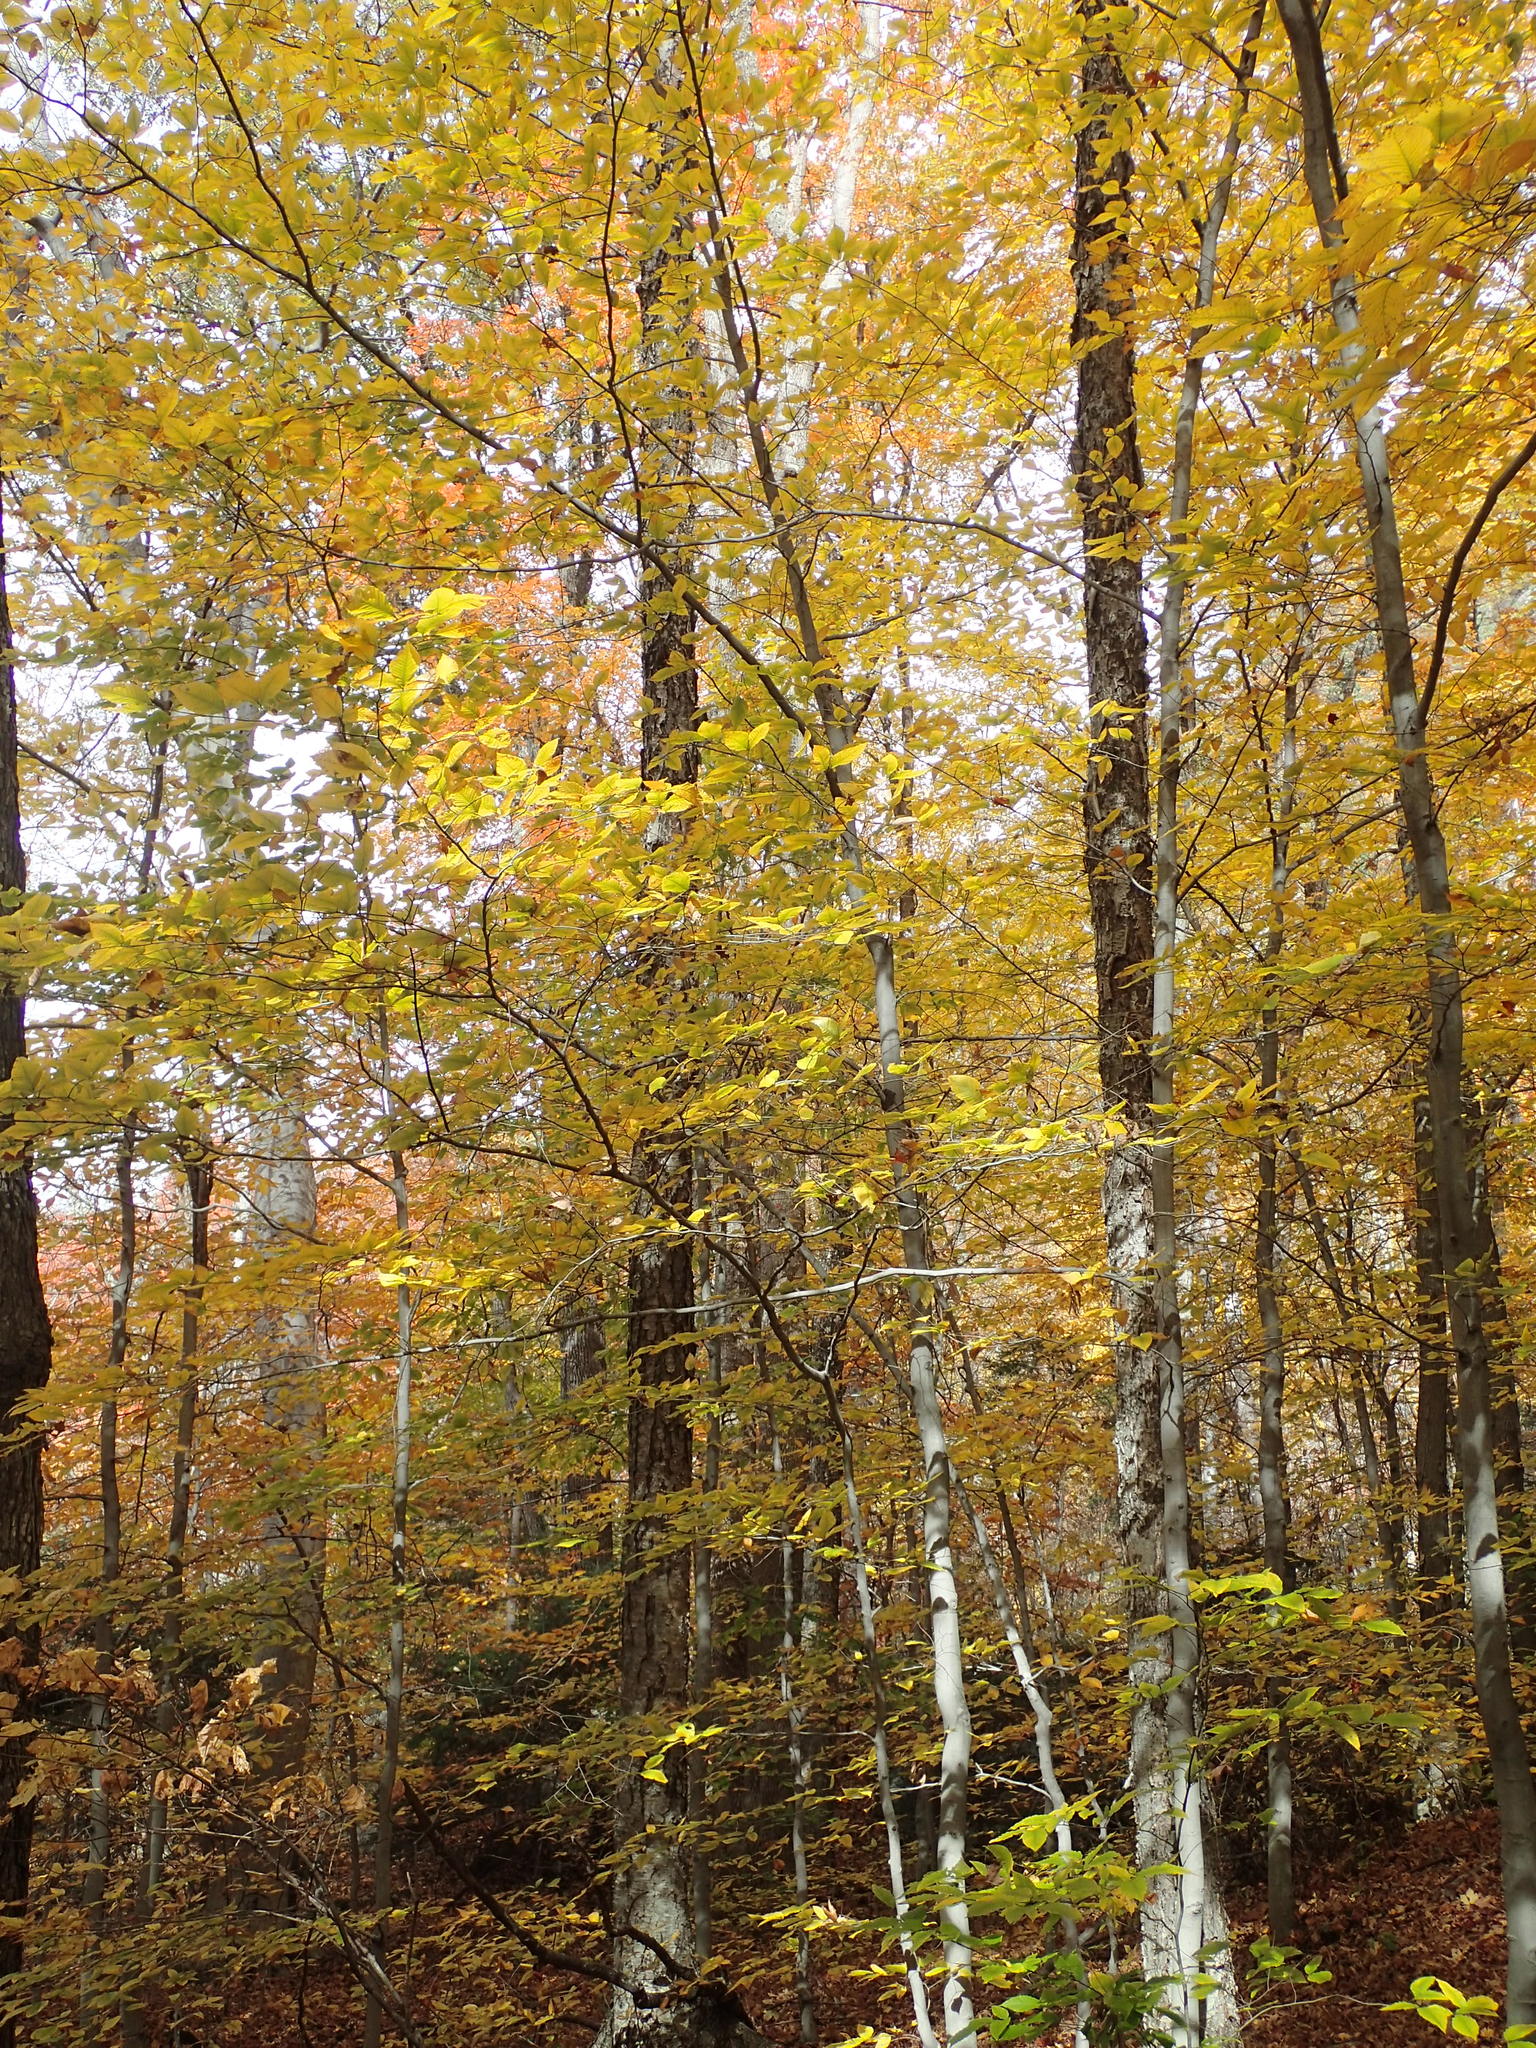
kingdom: Plantae
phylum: Tracheophyta
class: Magnoliopsida
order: Fagales
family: Fagaceae
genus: Fagus
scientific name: Fagus grandifolia
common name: American beech
